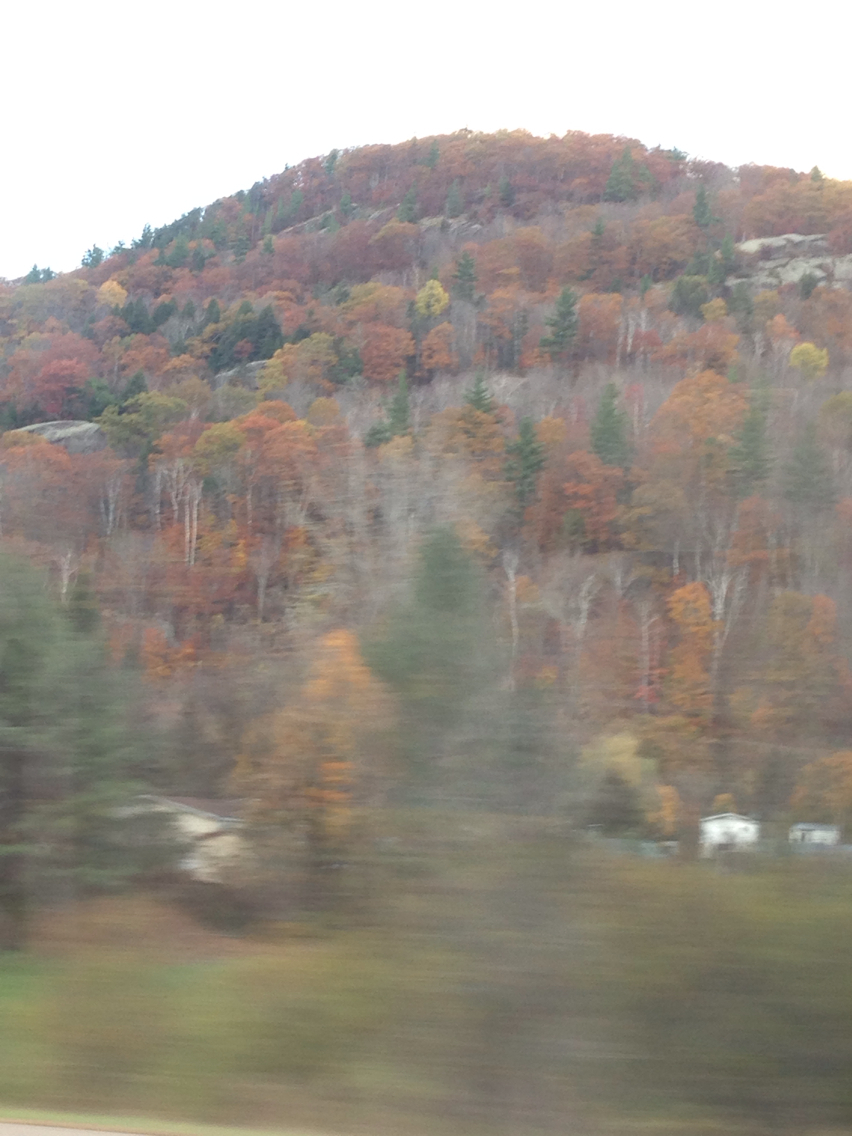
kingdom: Plantae
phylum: Tracheophyta
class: Pinopsida
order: Pinales
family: Pinaceae
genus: Tsuga
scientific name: Tsuga canadensis
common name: Eastern hemlock
